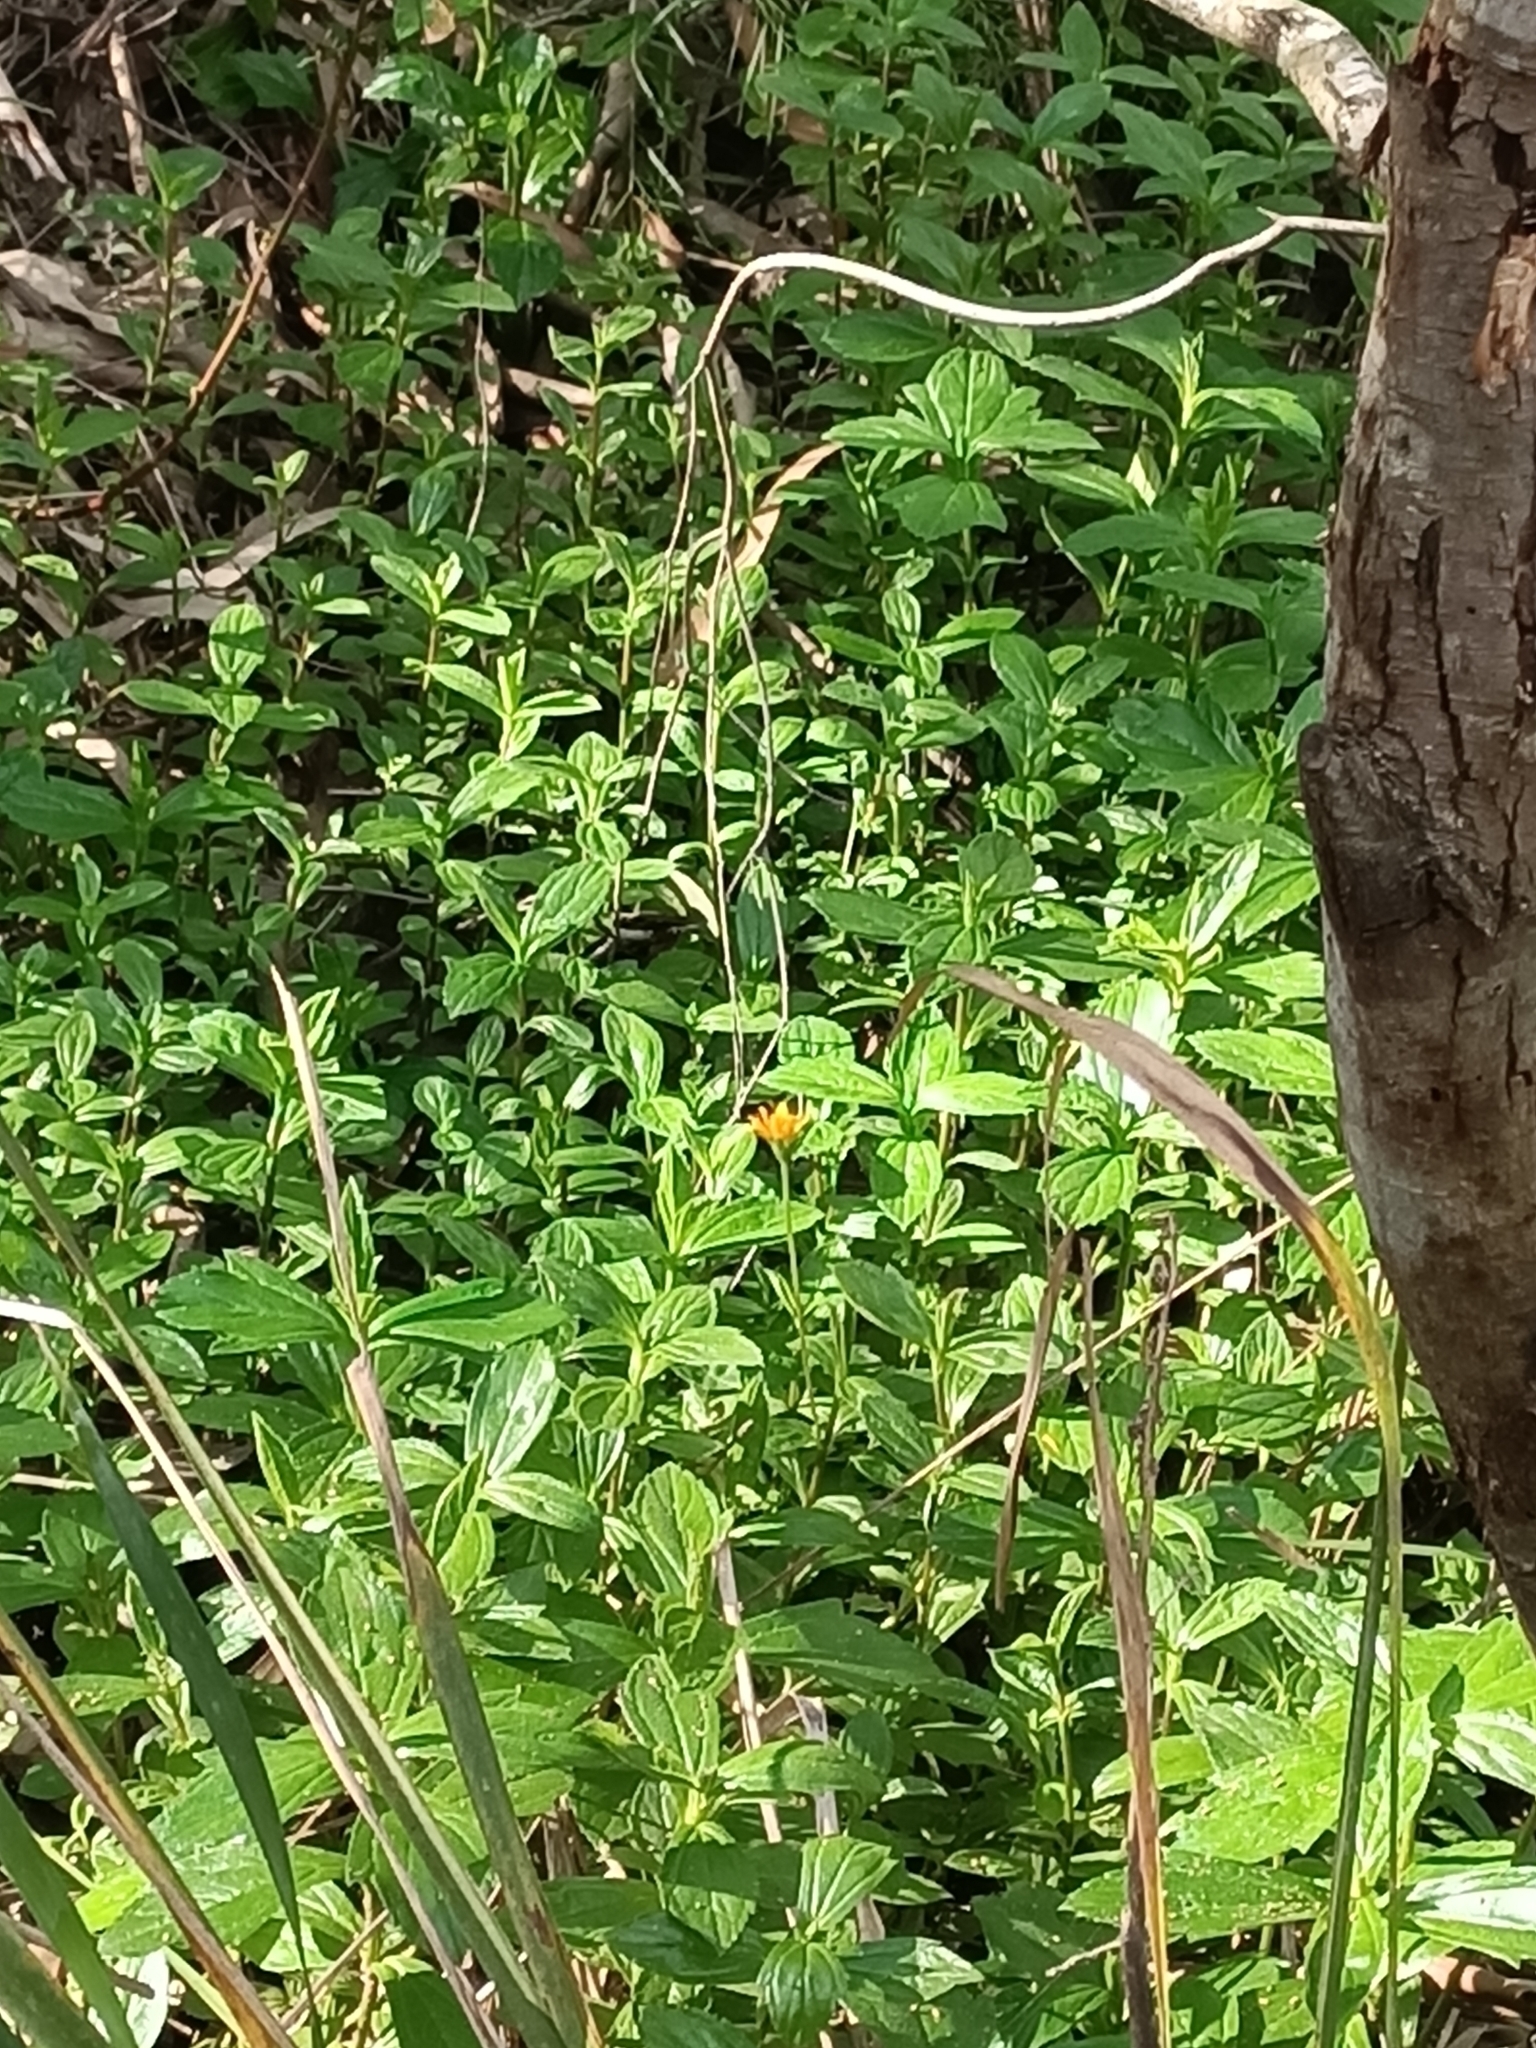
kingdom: Plantae
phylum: Tracheophyta
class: Magnoliopsida
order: Asterales
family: Asteraceae
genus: Sphagneticola
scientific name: Sphagneticola trilobata
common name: Bay biscayne creeping-oxeye
